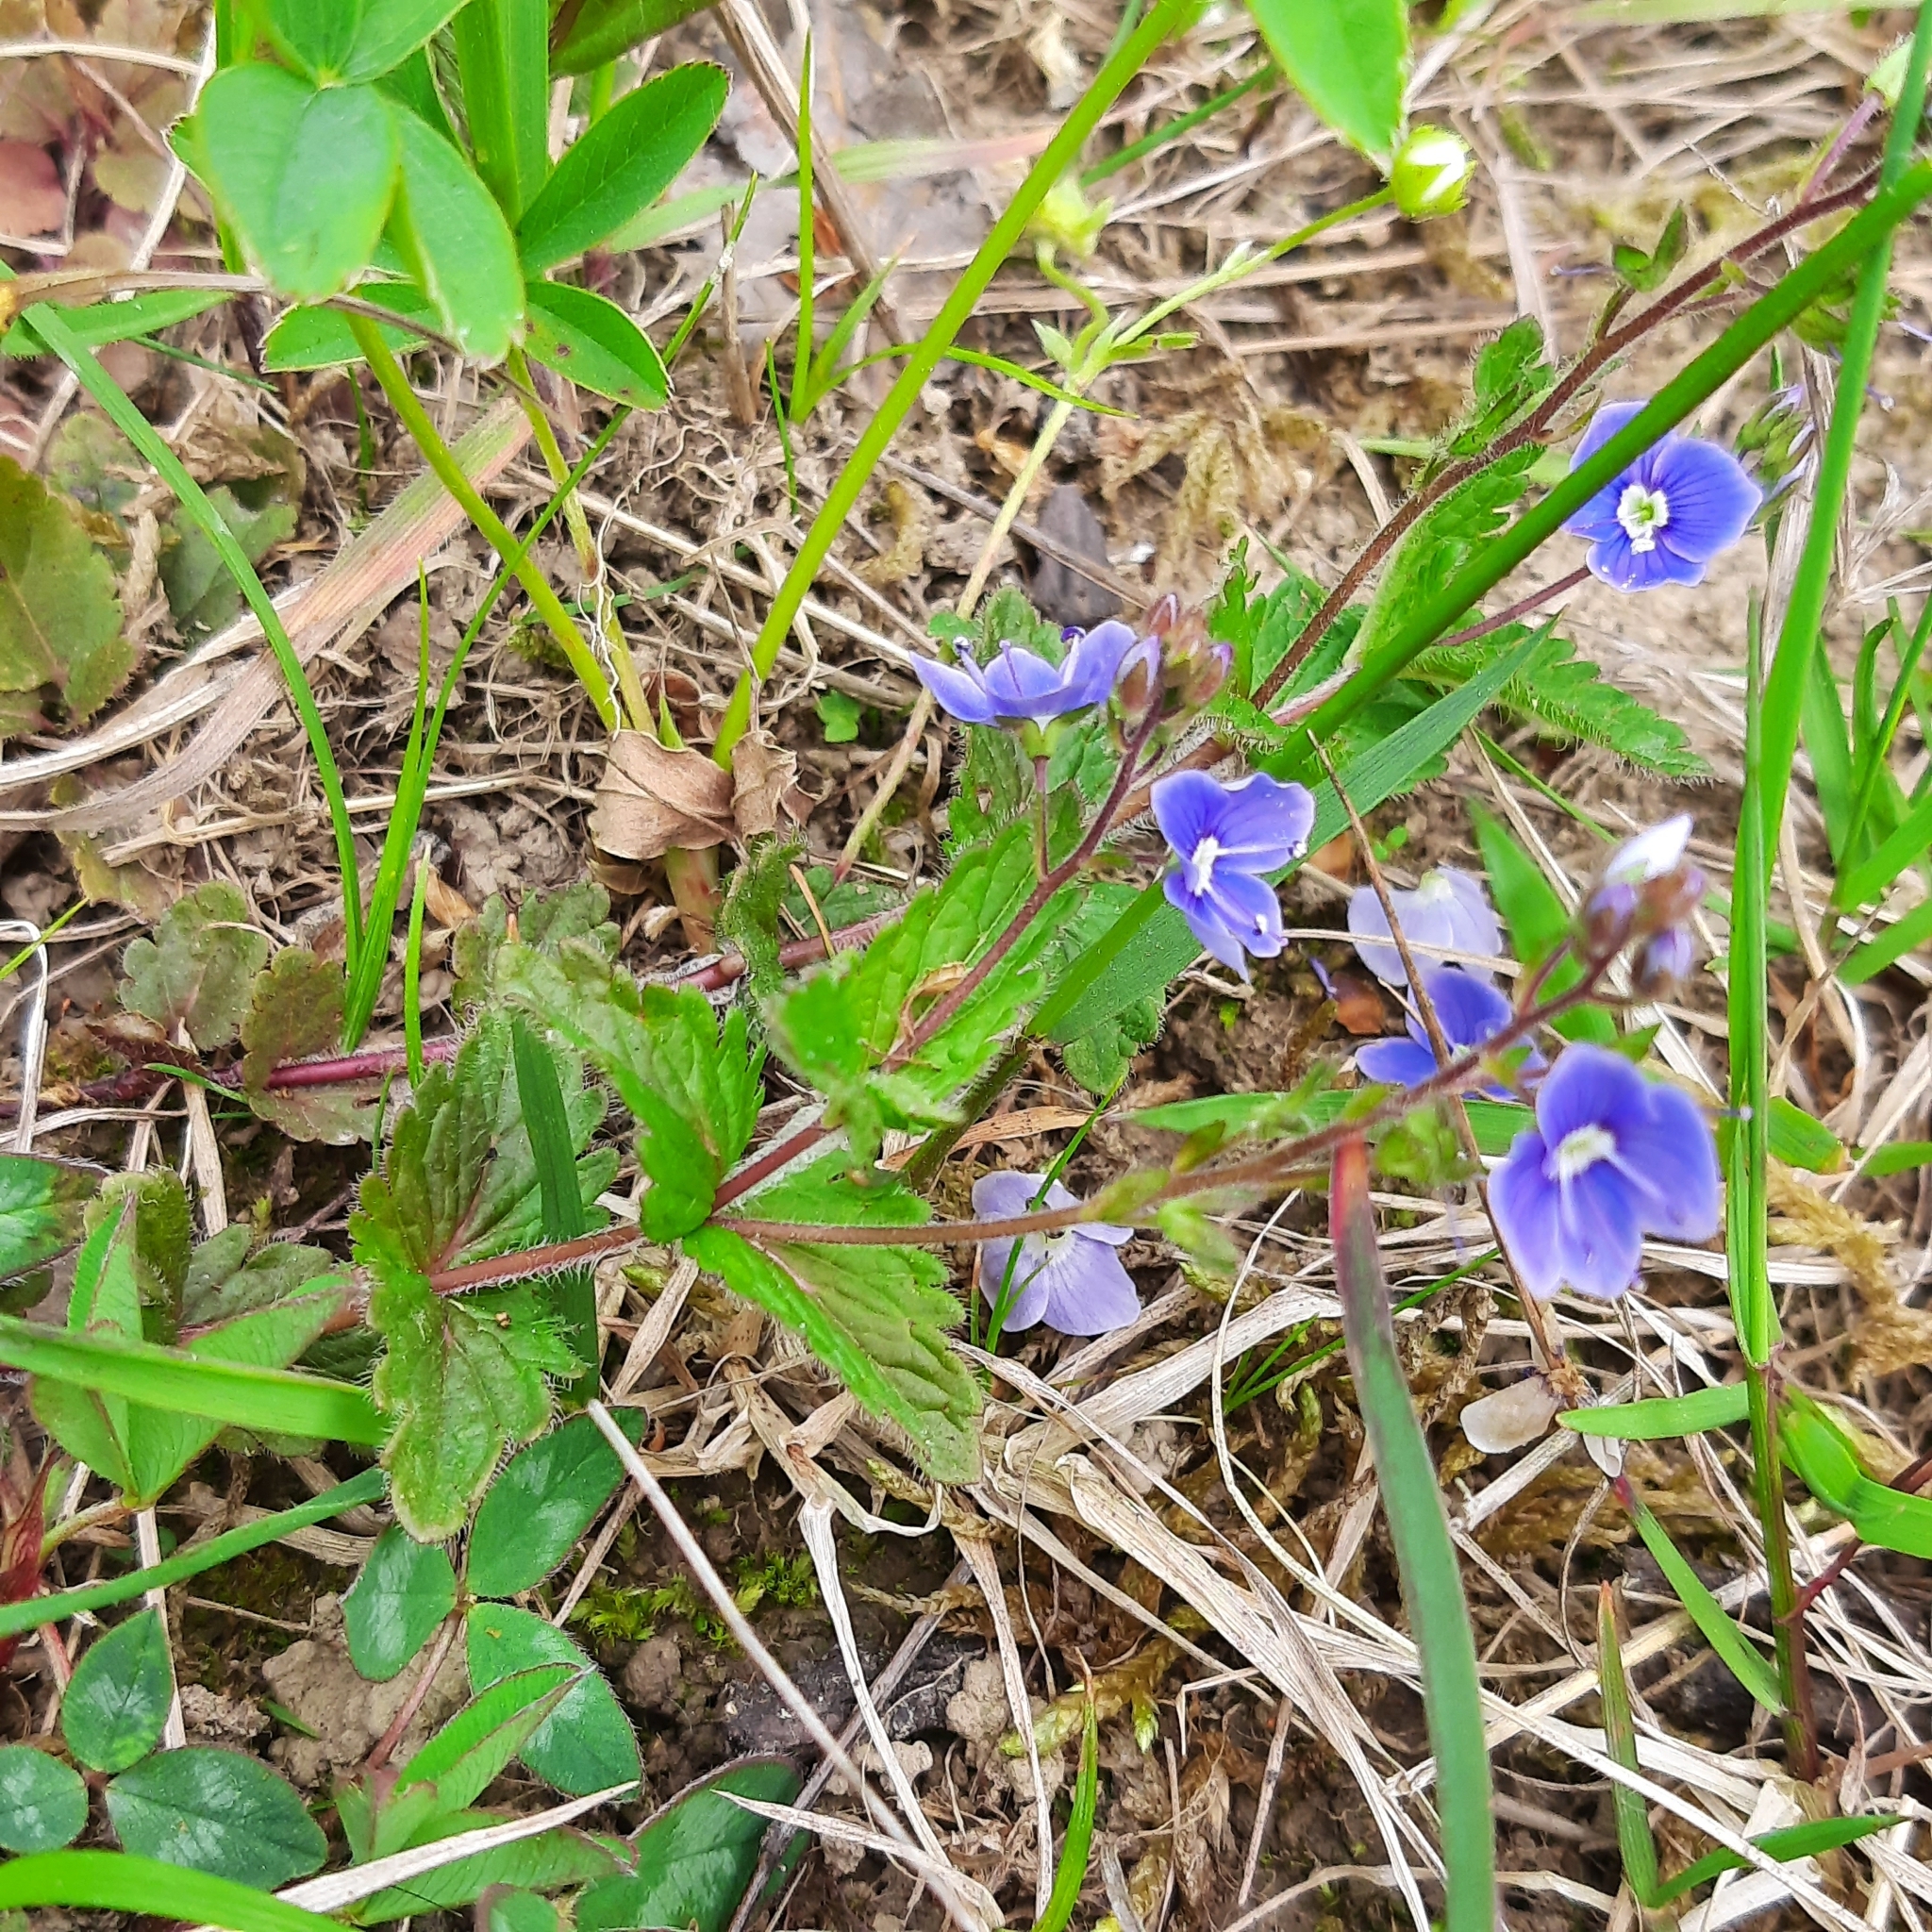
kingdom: Plantae
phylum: Tracheophyta
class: Magnoliopsida
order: Lamiales
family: Plantaginaceae
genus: Veronica
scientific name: Veronica chamaedrys
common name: Germander speedwell
